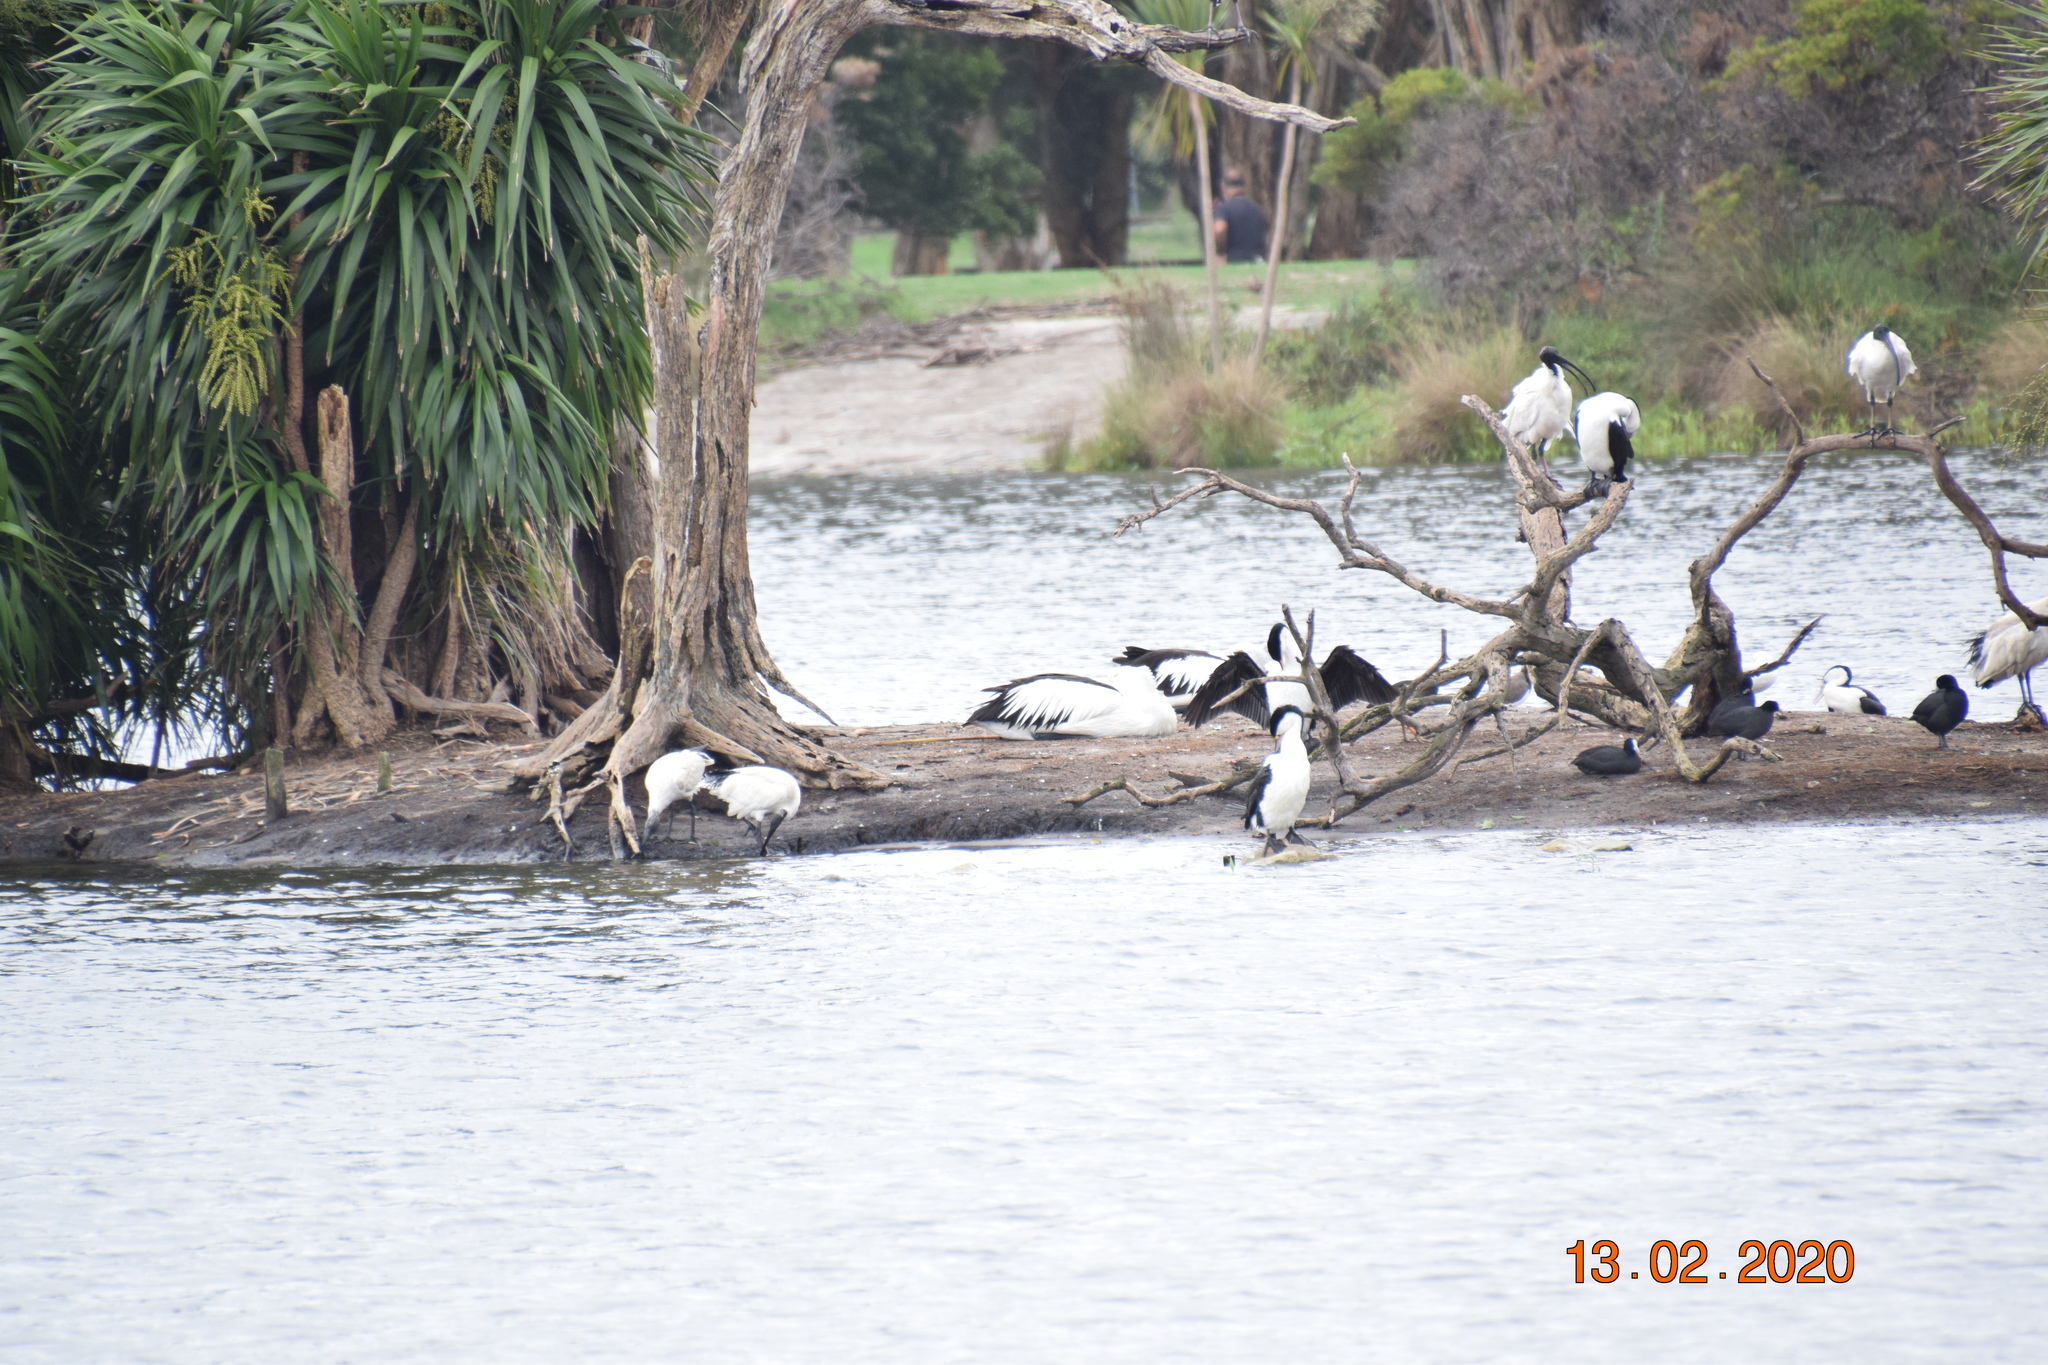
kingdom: Animalia
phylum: Chordata
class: Aves
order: Pelecaniformes
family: Pelecanidae
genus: Pelecanus
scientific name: Pelecanus conspicillatus
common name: Australian pelican
